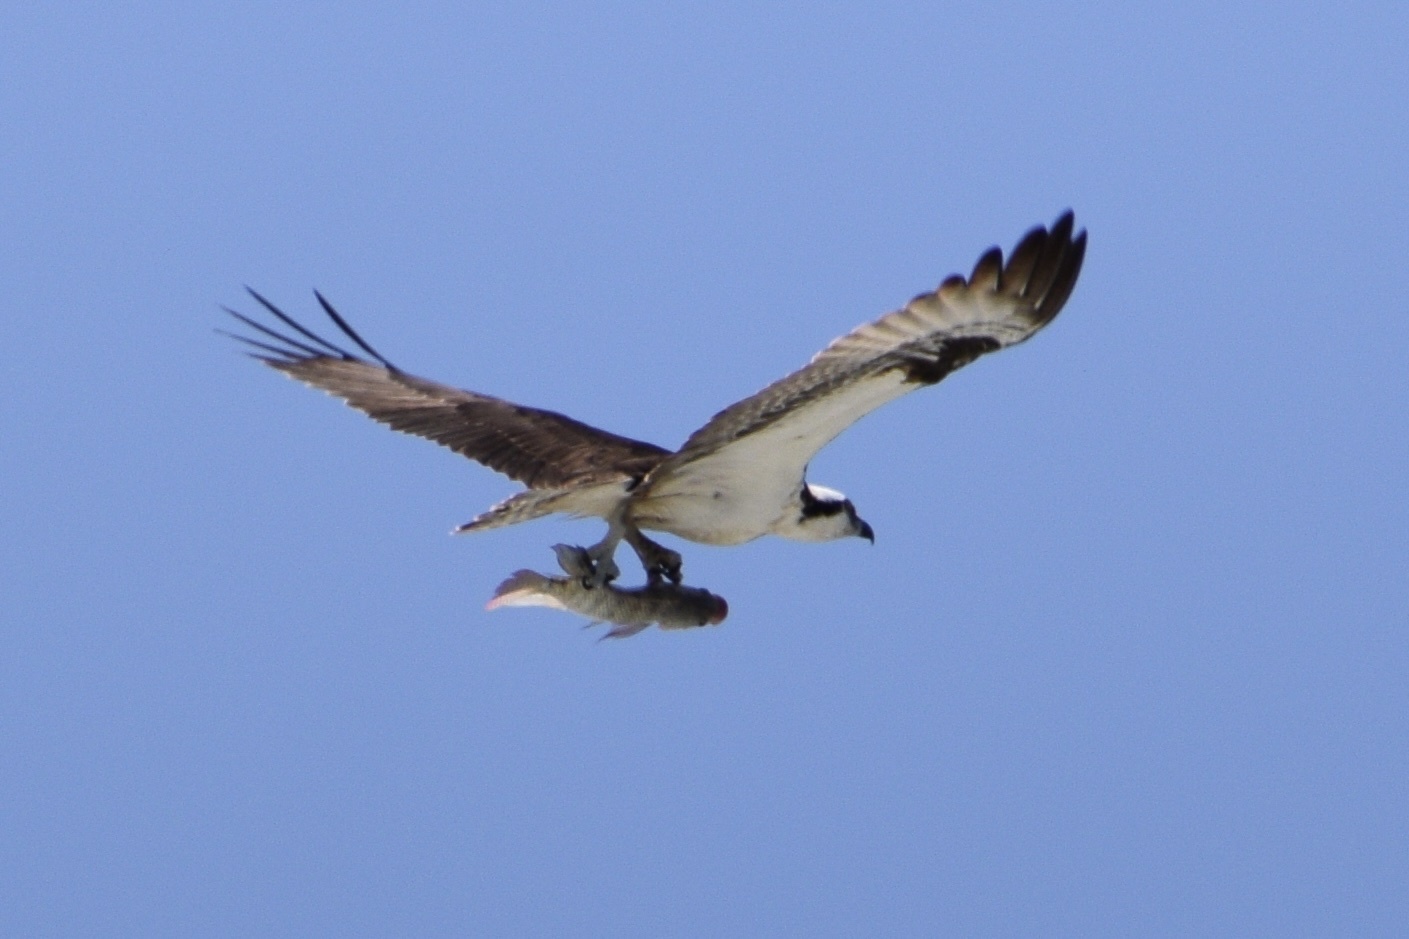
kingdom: Animalia
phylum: Chordata
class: Aves
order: Accipitriformes
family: Pandionidae
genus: Pandion
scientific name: Pandion haliaetus
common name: Osprey
